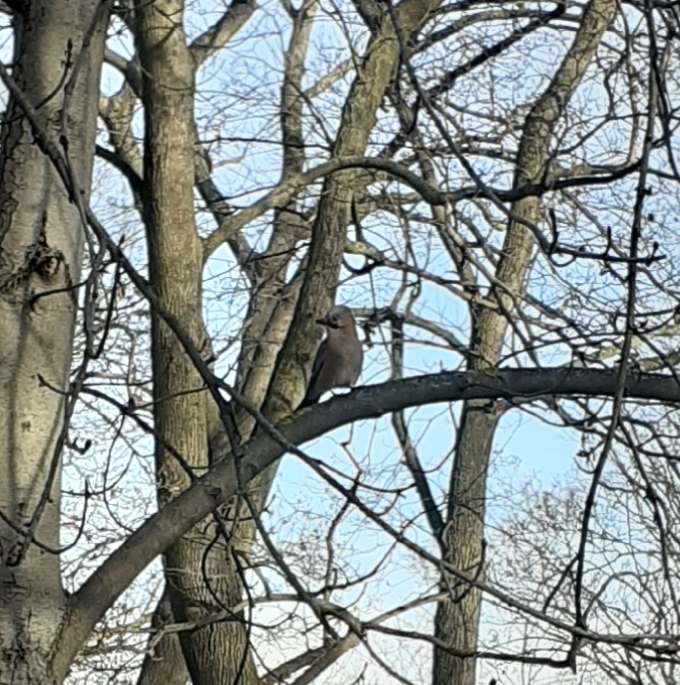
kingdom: Animalia
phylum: Chordata
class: Aves
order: Passeriformes
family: Corvidae
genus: Garrulus
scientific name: Garrulus glandarius
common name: Eurasian jay
